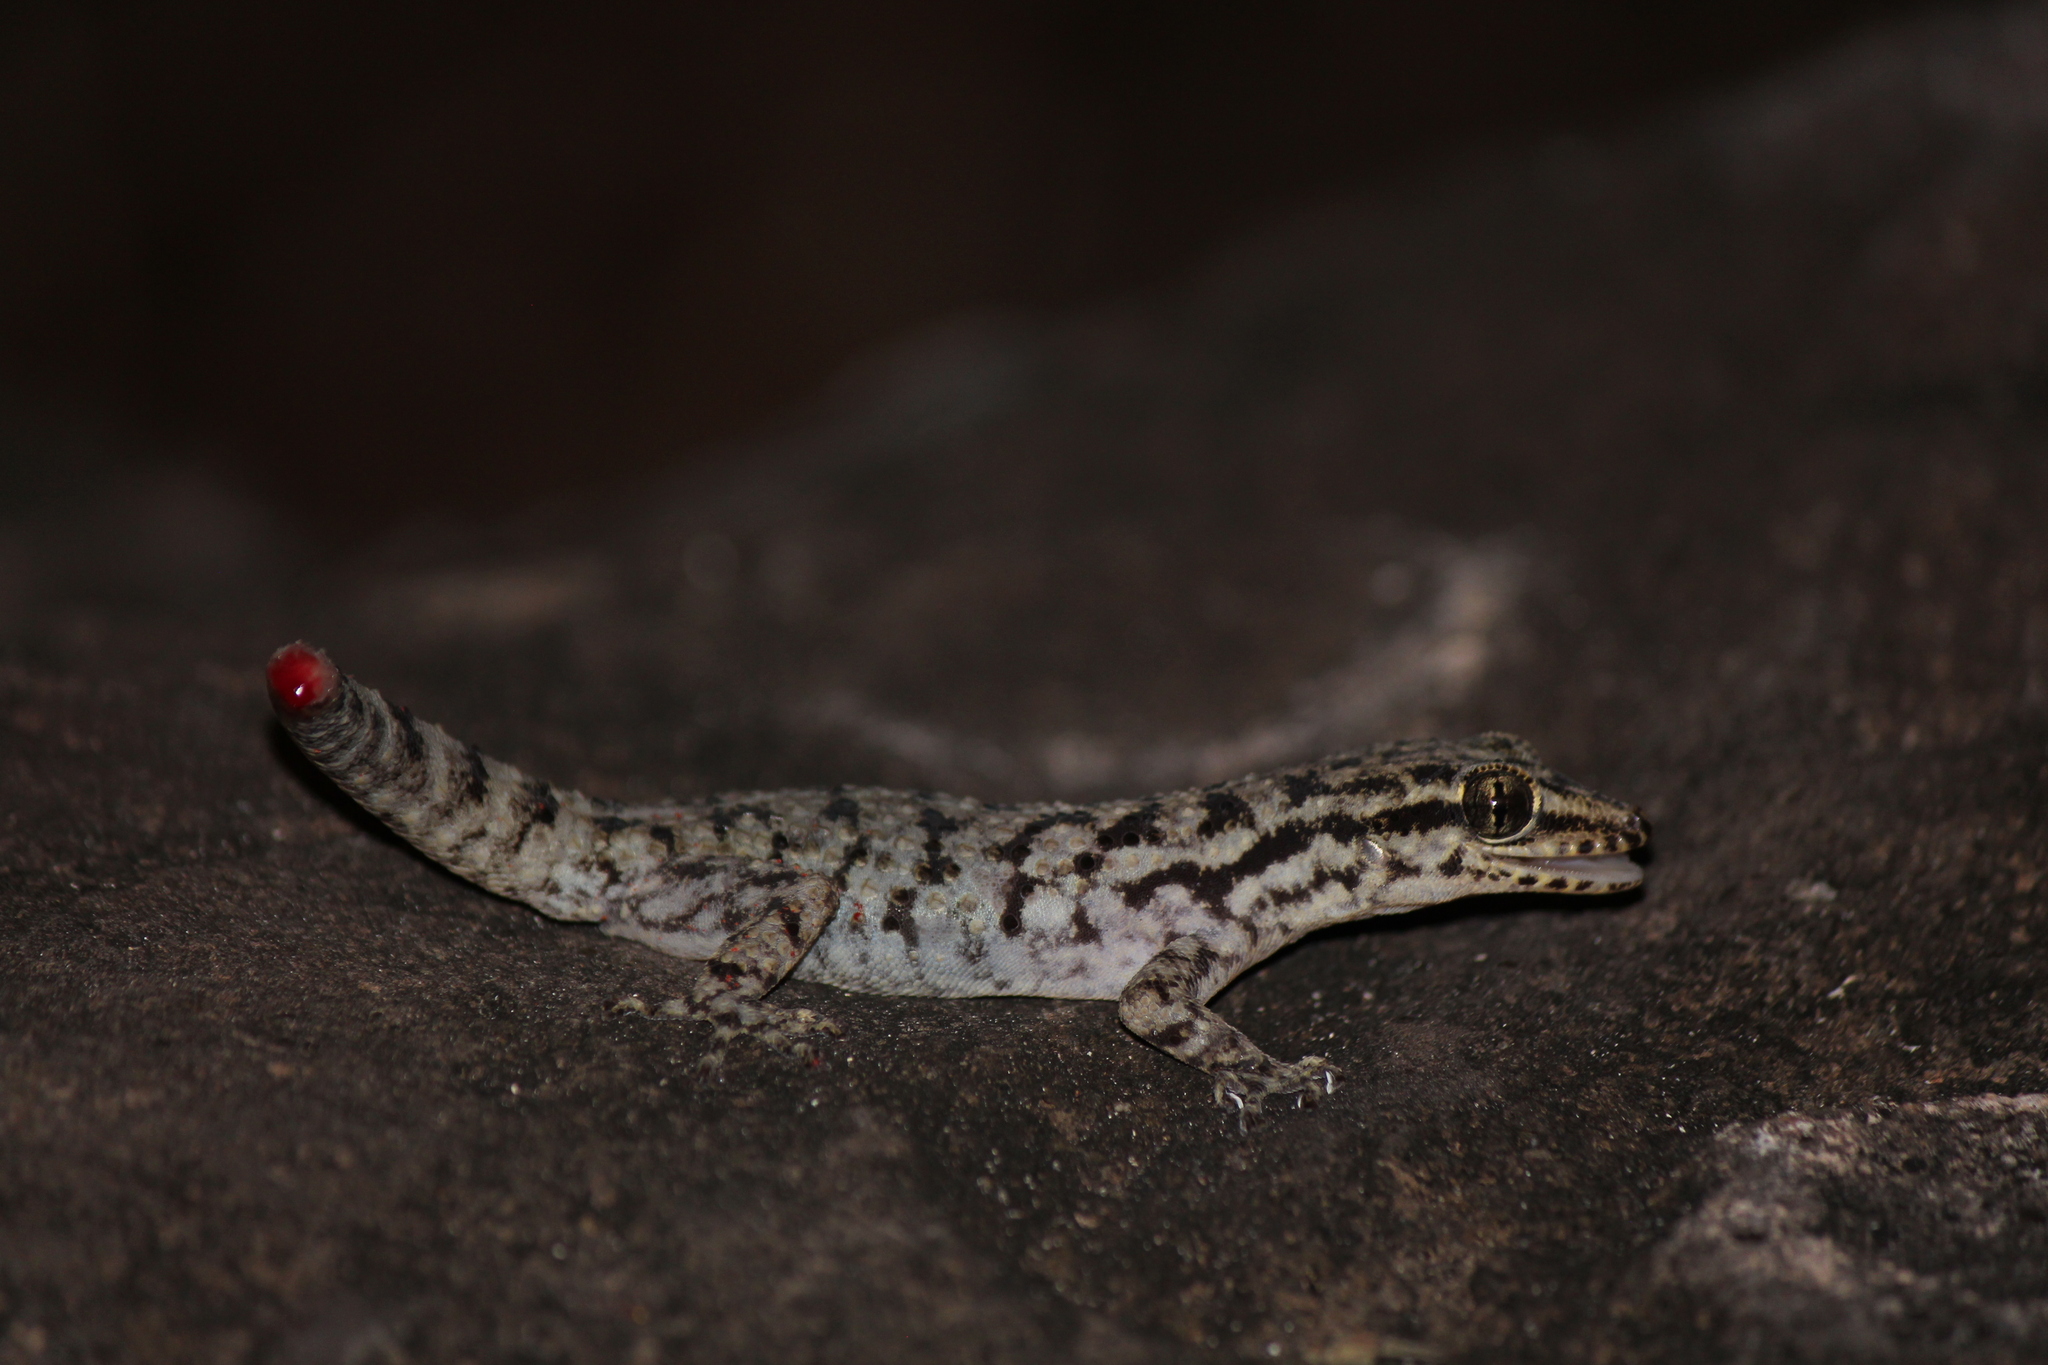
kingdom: Animalia
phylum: Chordata
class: Squamata
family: Phyllodactylidae
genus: Phyllodactylus
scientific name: Phyllodactylus darwini
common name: Darwin's leaf-toed gecko
